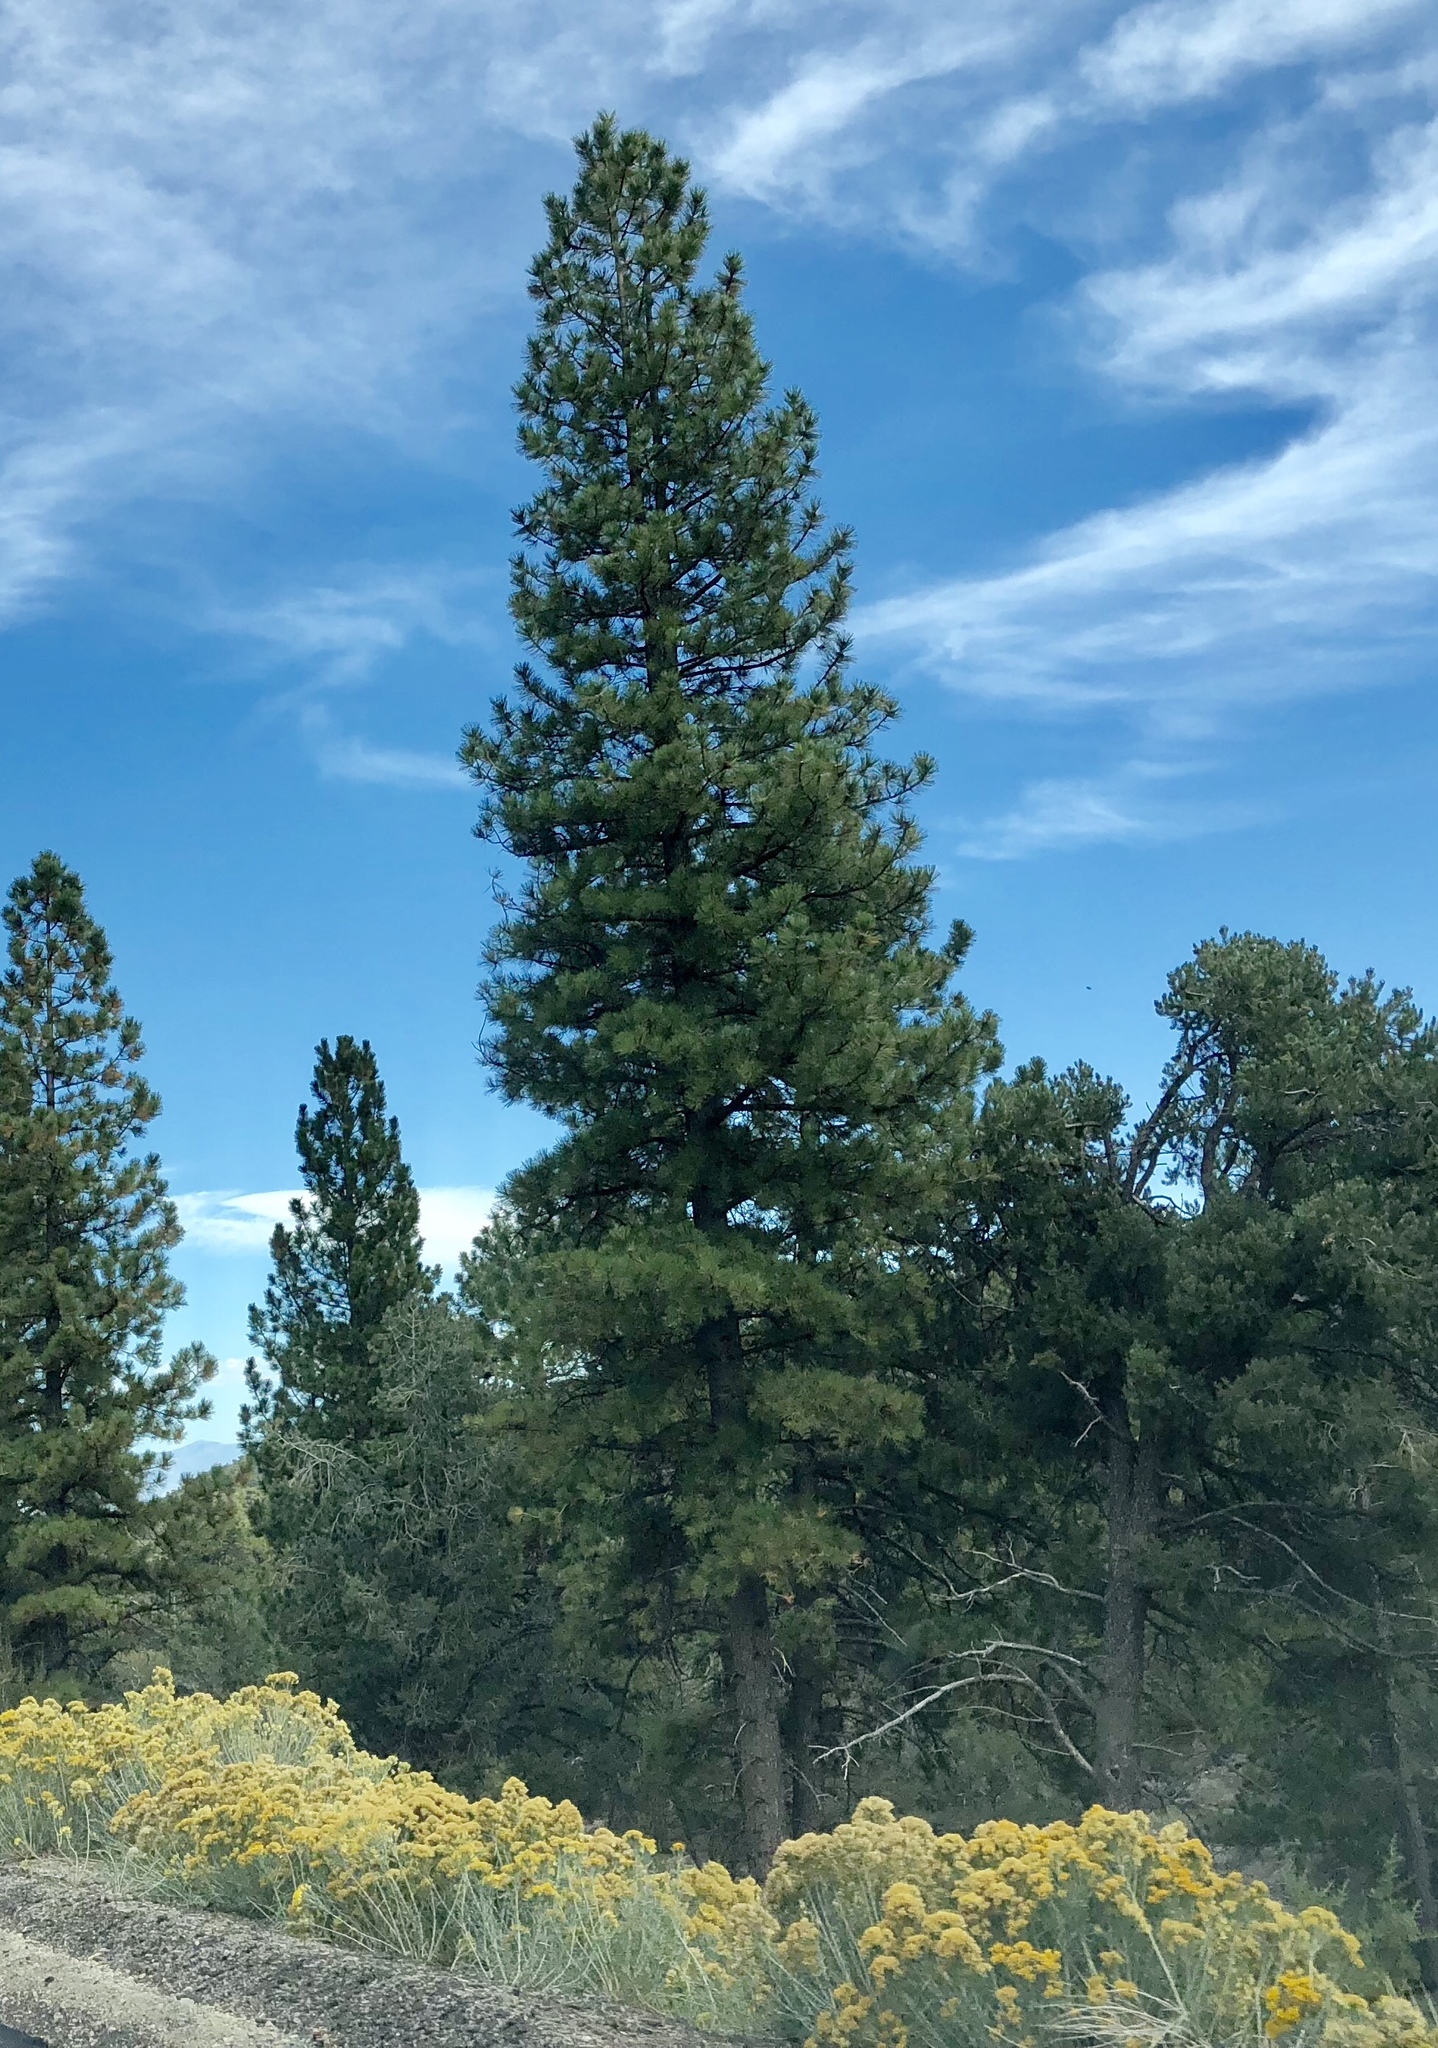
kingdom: Plantae
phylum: Tracheophyta
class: Pinopsida
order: Pinales
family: Pinaceae
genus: Pinus
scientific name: Pinus ponderosa
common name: Western yellow-pine
